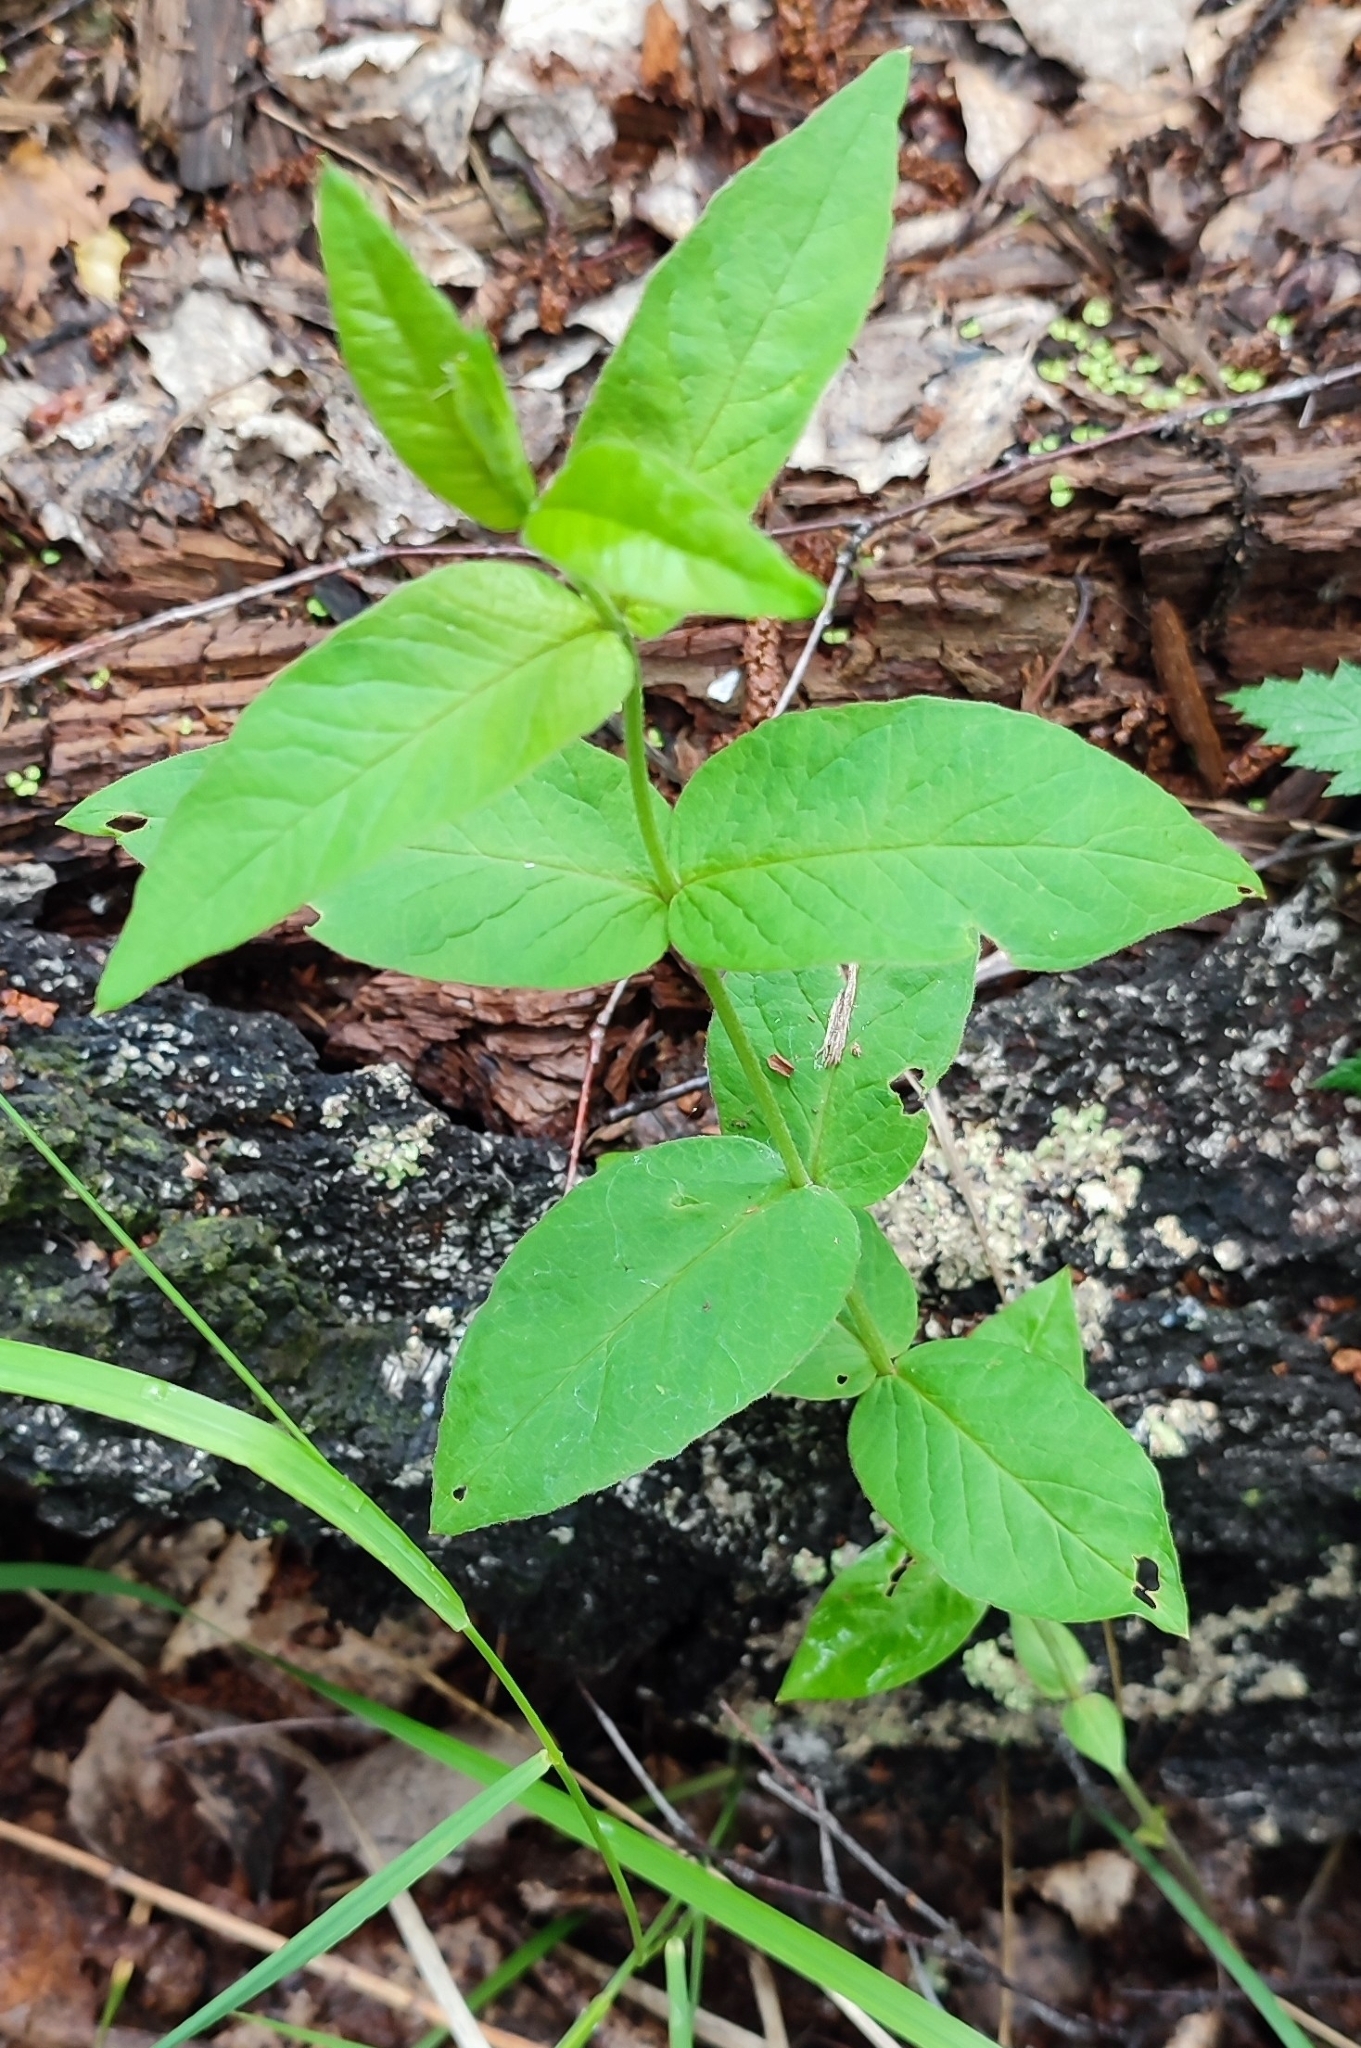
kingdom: Plantae
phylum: Tracheophyta
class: Magnoliopsida
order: Ericales
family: Primulaceae
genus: Lysimachia
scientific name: Lysimachia vulgaris
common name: Yellow loosestrife
